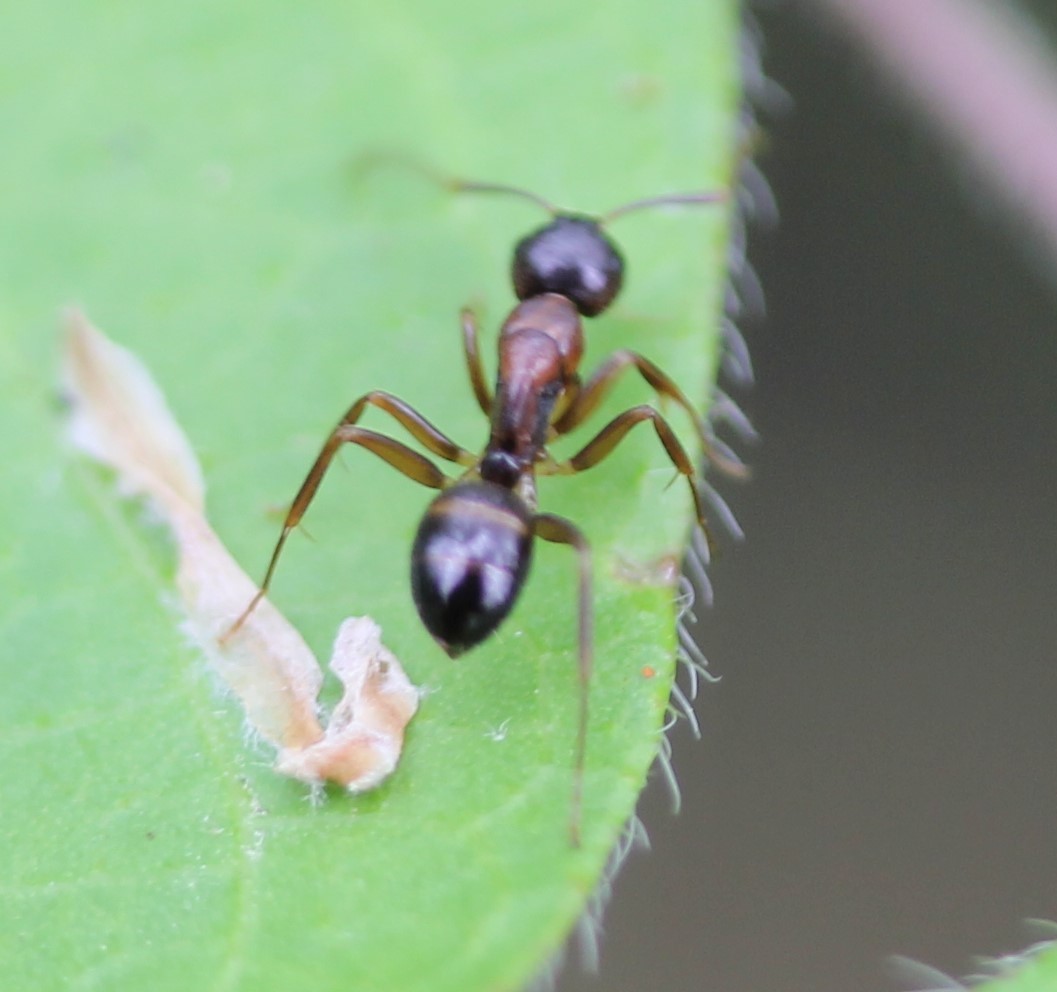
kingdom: Animalia
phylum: Arthropoda
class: Insecta
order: Hymenoptera
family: Formicidae
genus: Camponotus
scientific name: Camponotus subbarbatus
